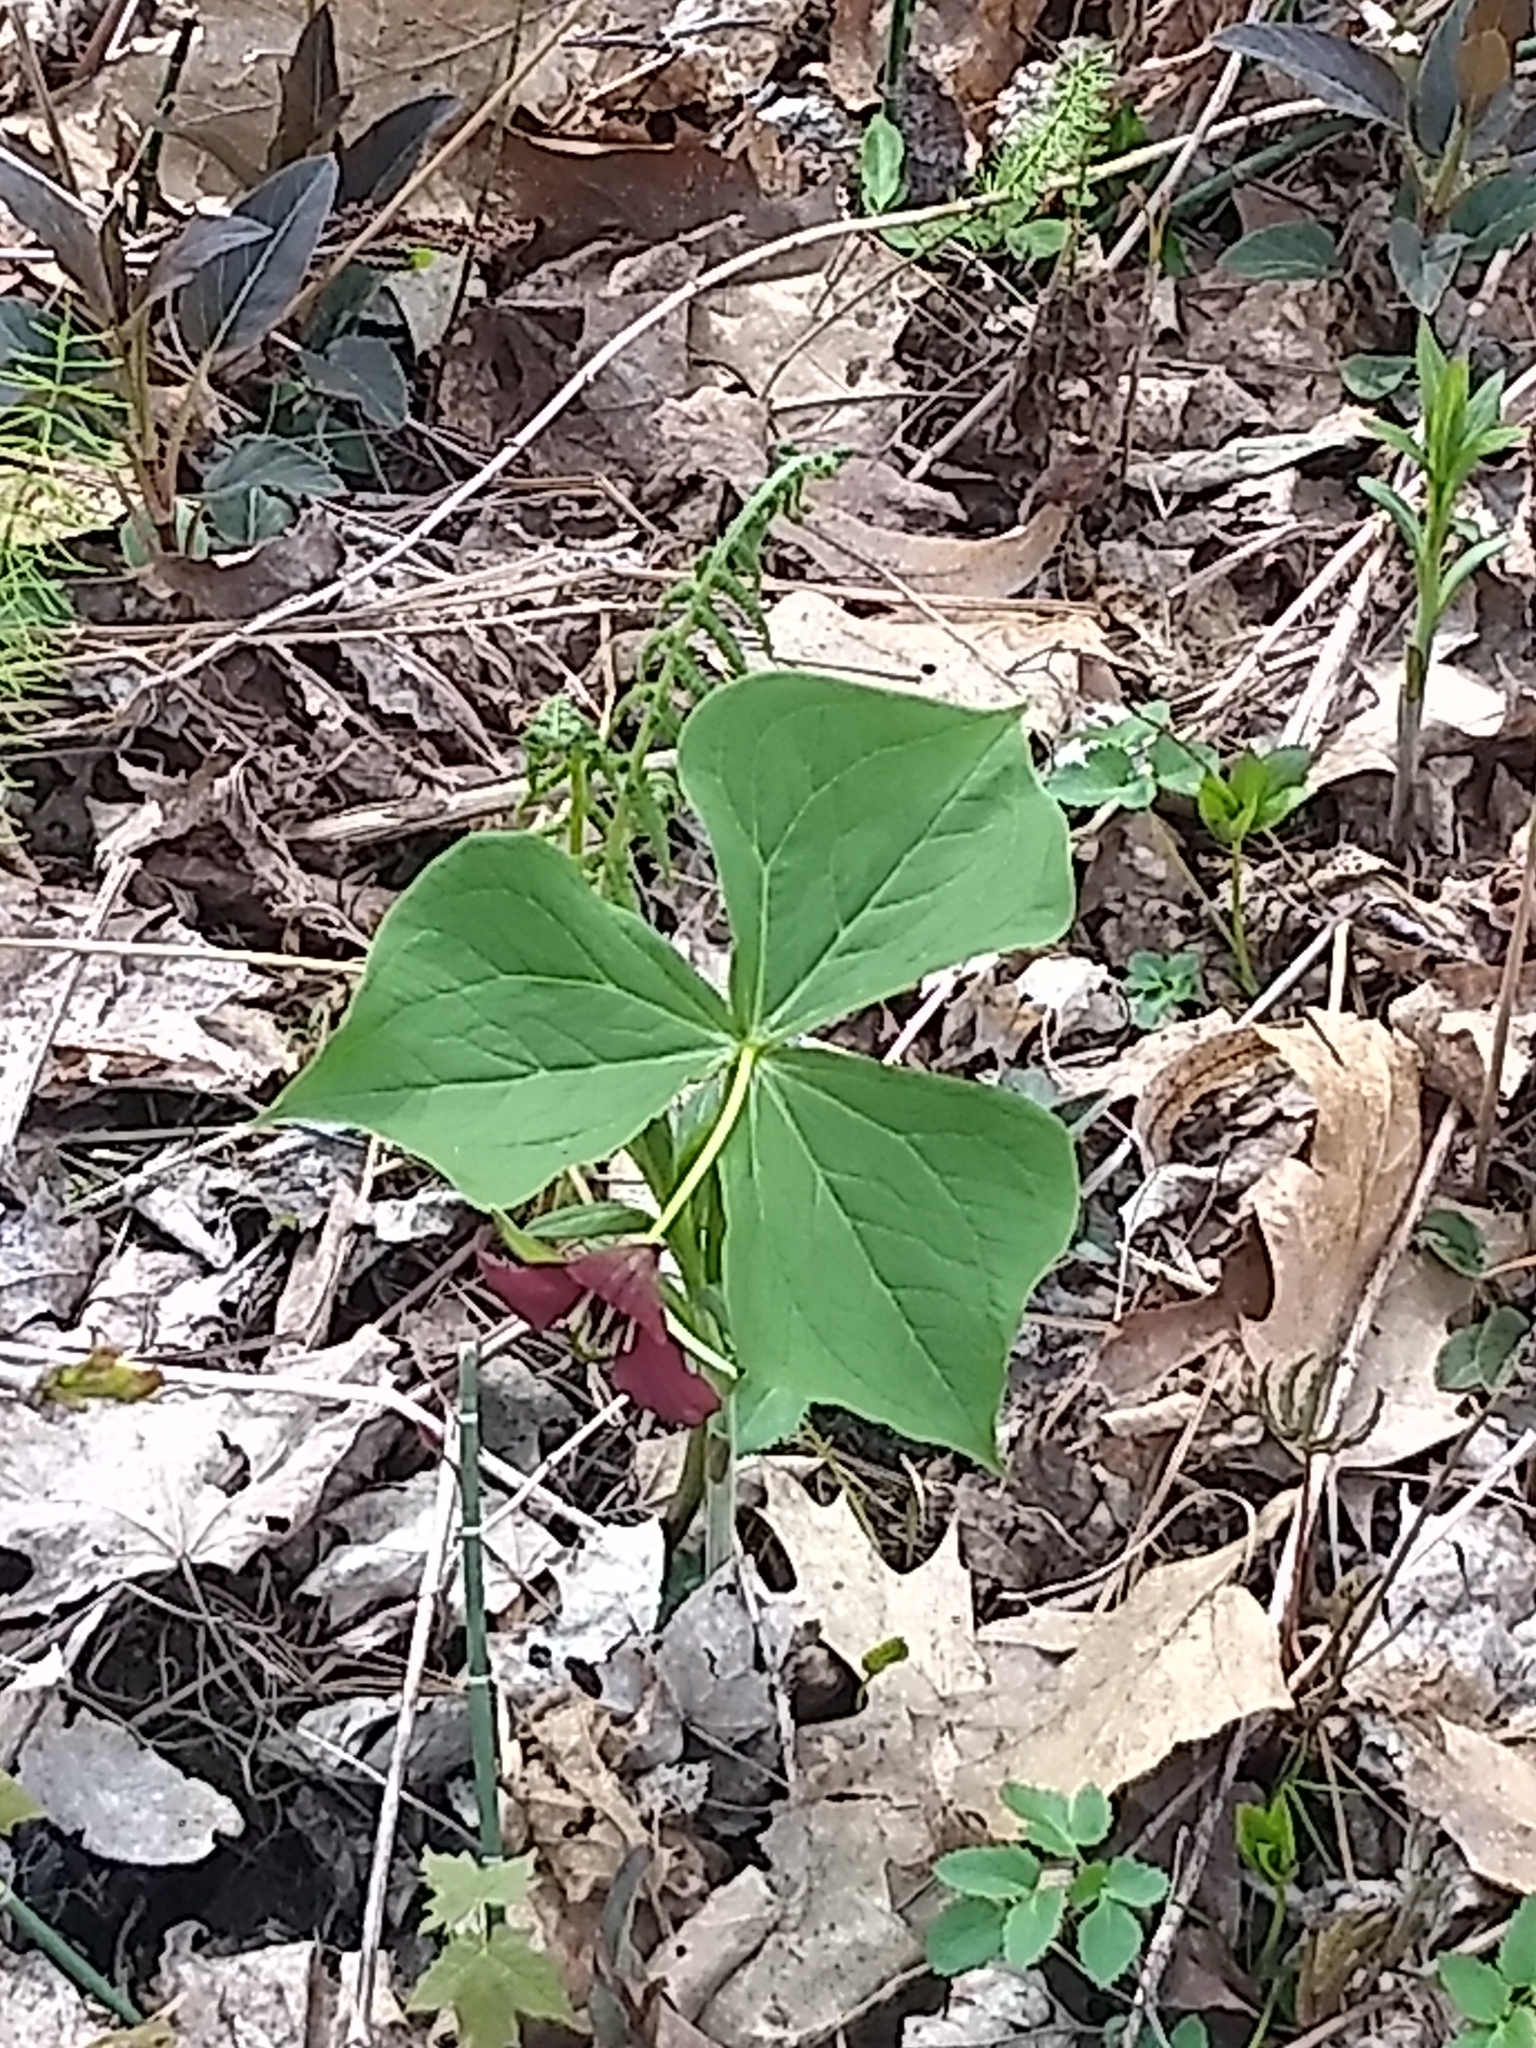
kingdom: Plantae
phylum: Tracheophyta
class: Liliopsida
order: Liliales
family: Melanthiaceae
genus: Trillium
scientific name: Trillium erectum
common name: Purple trillium
